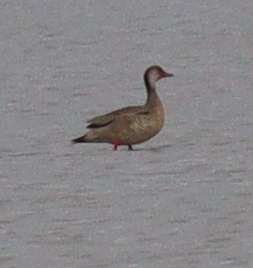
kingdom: Animalia
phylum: Chordata
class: Aves
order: Anseriformes
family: Anatidae
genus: Amazonetta
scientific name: Amazonetta brasiliensis
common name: Brazilian teal
